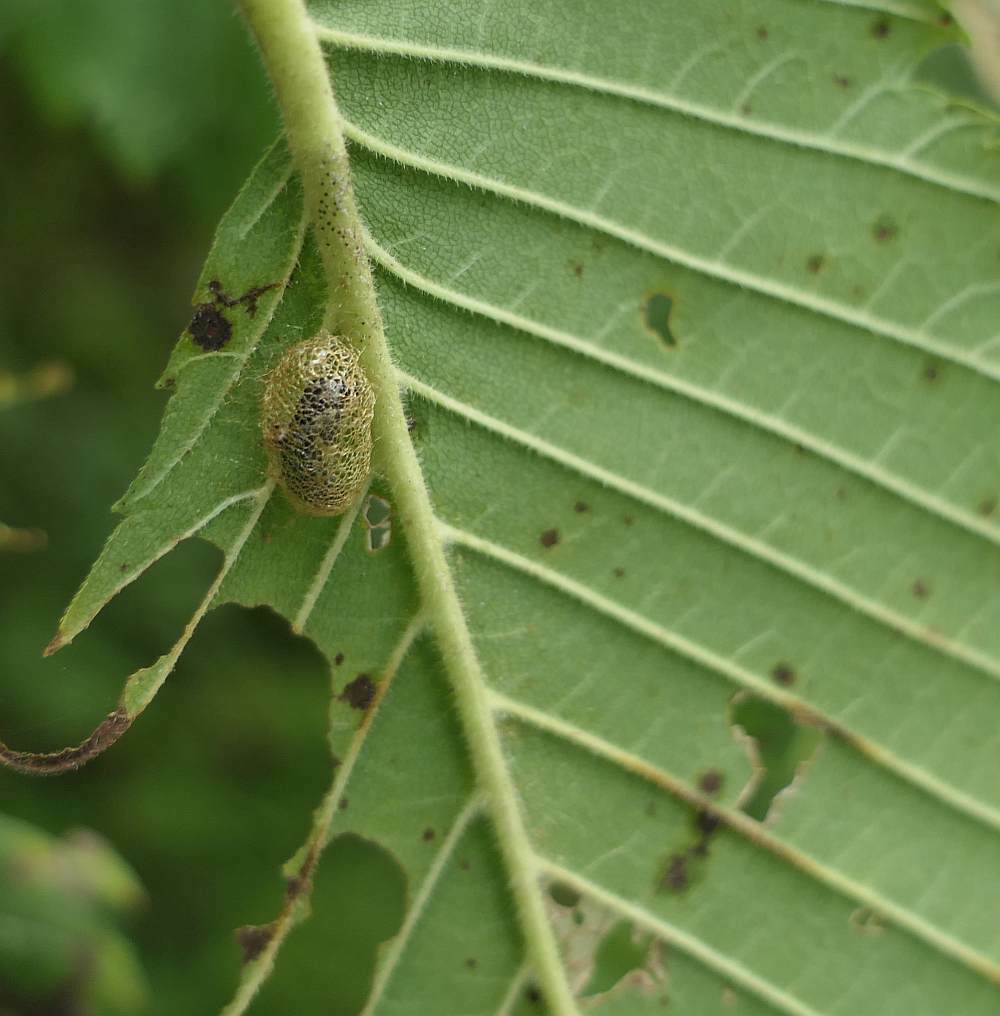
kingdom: Animalia
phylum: Arthropoda
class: Insecta
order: Hymenoptera
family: Argidae
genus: Aproceros
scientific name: Aproceros leucopoda
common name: Zig-zag elm sawfly
